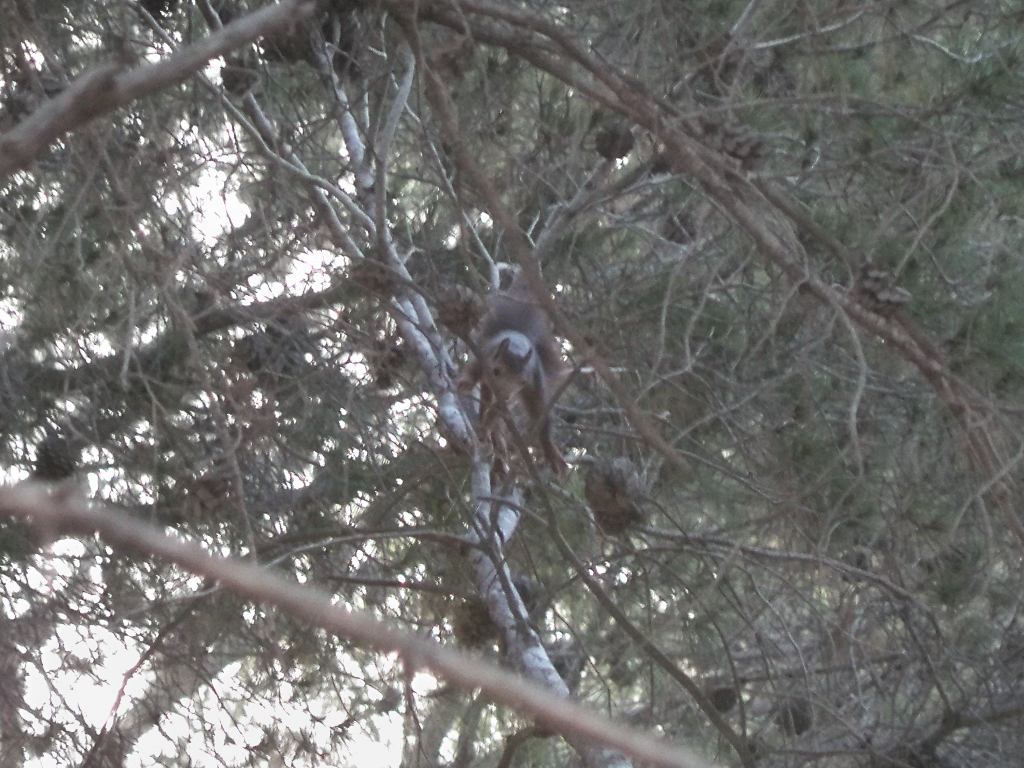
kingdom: Animalia
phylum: Chordata
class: Mammalia
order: Rodentia
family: Sciuridae
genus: Sciurus
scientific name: Sciurus vulgaris
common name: Eurasian red squirrel
